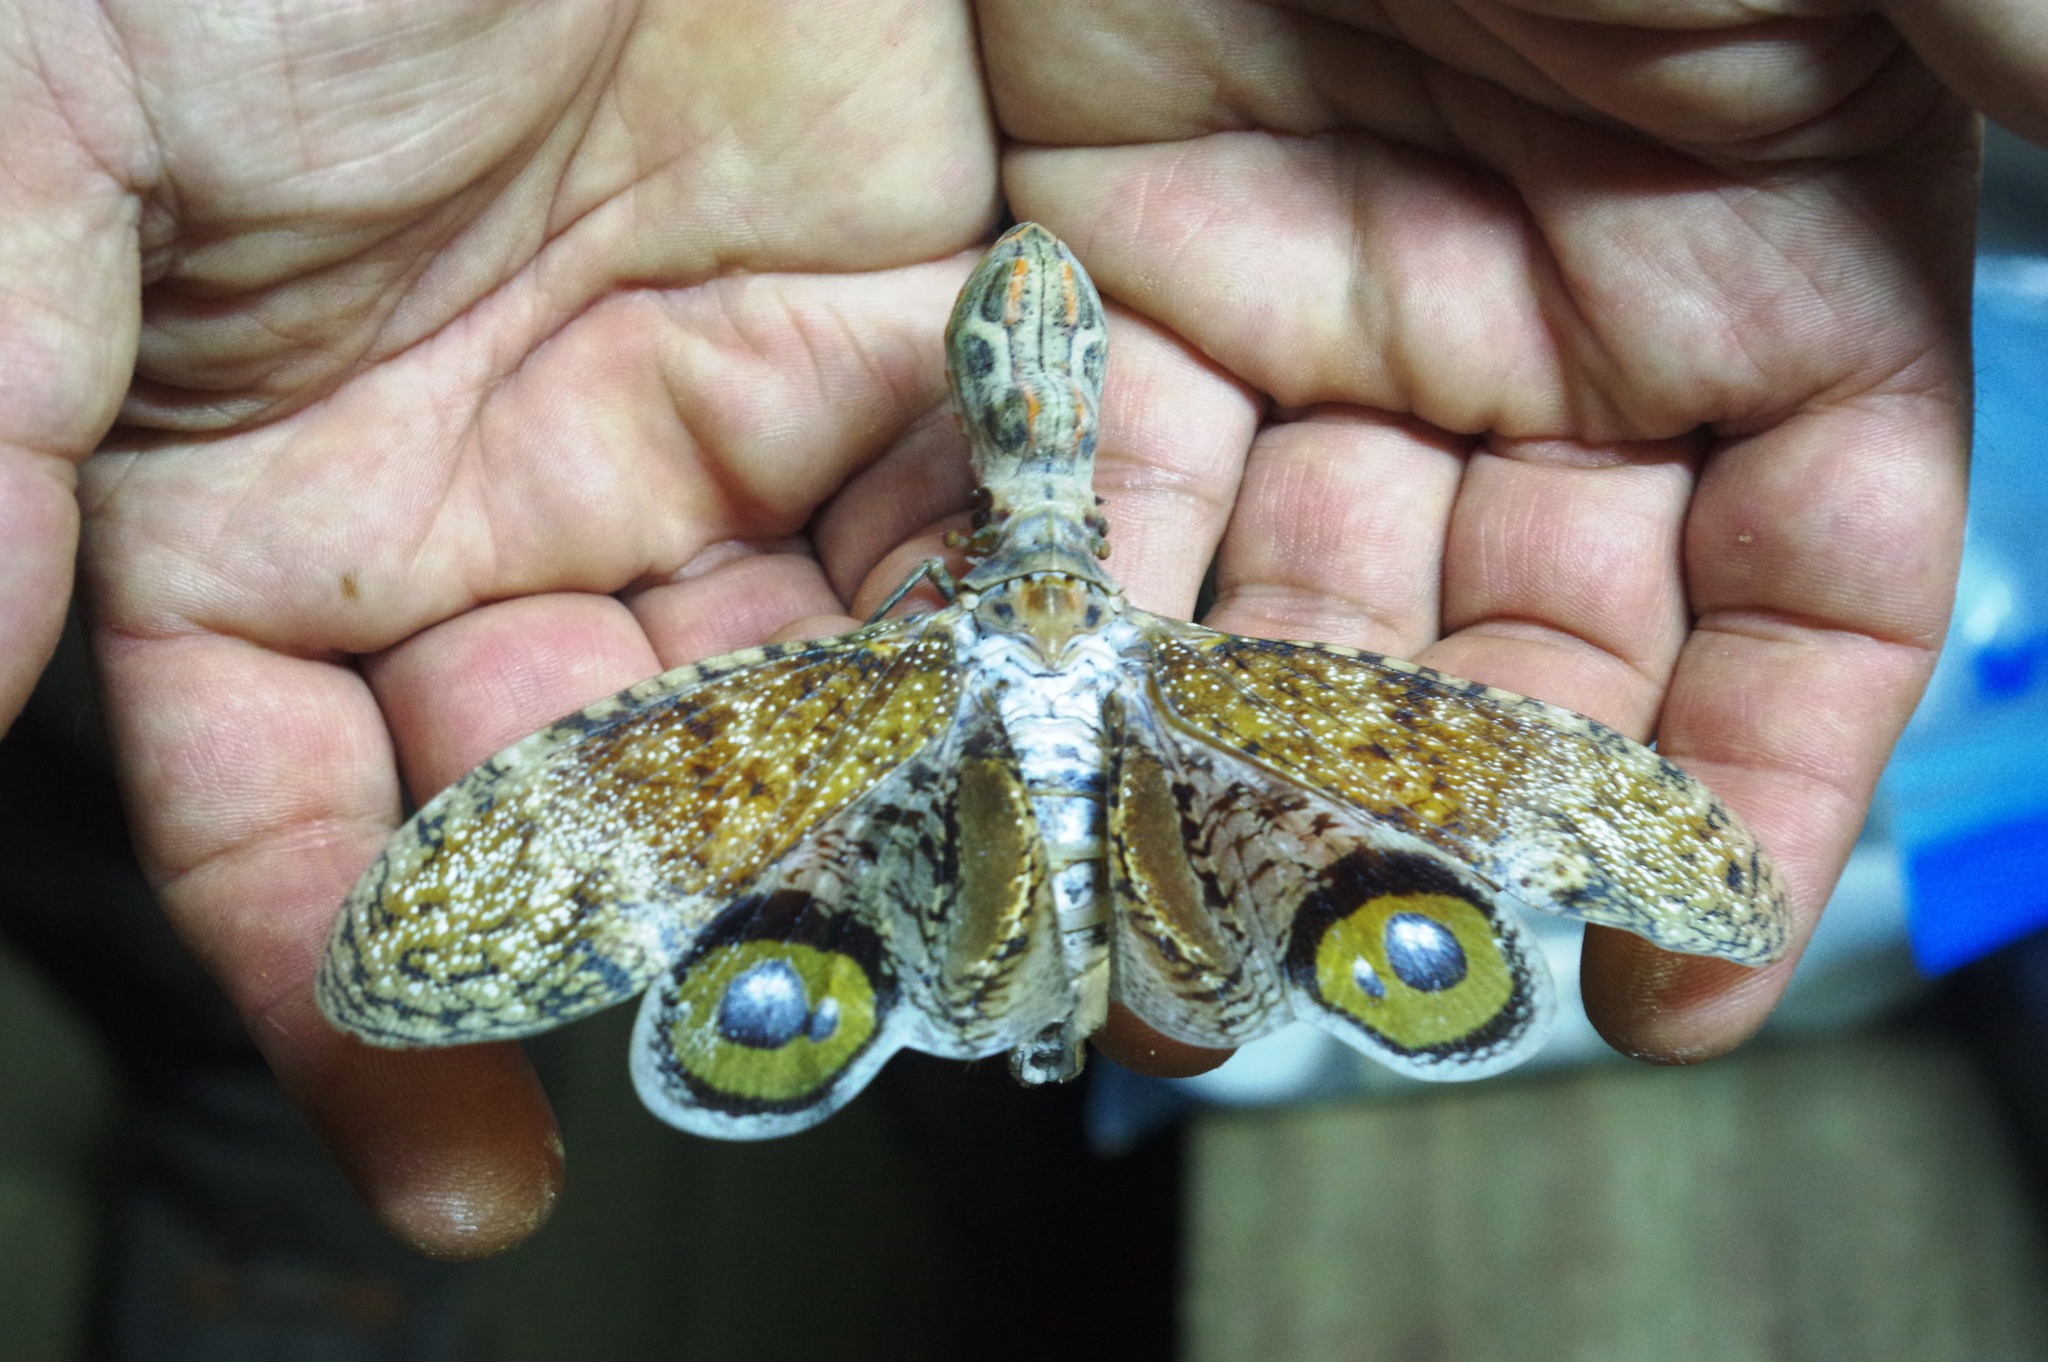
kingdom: Animalia
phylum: Arthropoda
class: Insecta
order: Hemiptera
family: Fulgoridae
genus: Fulgora
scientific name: Fulgora laternaria
